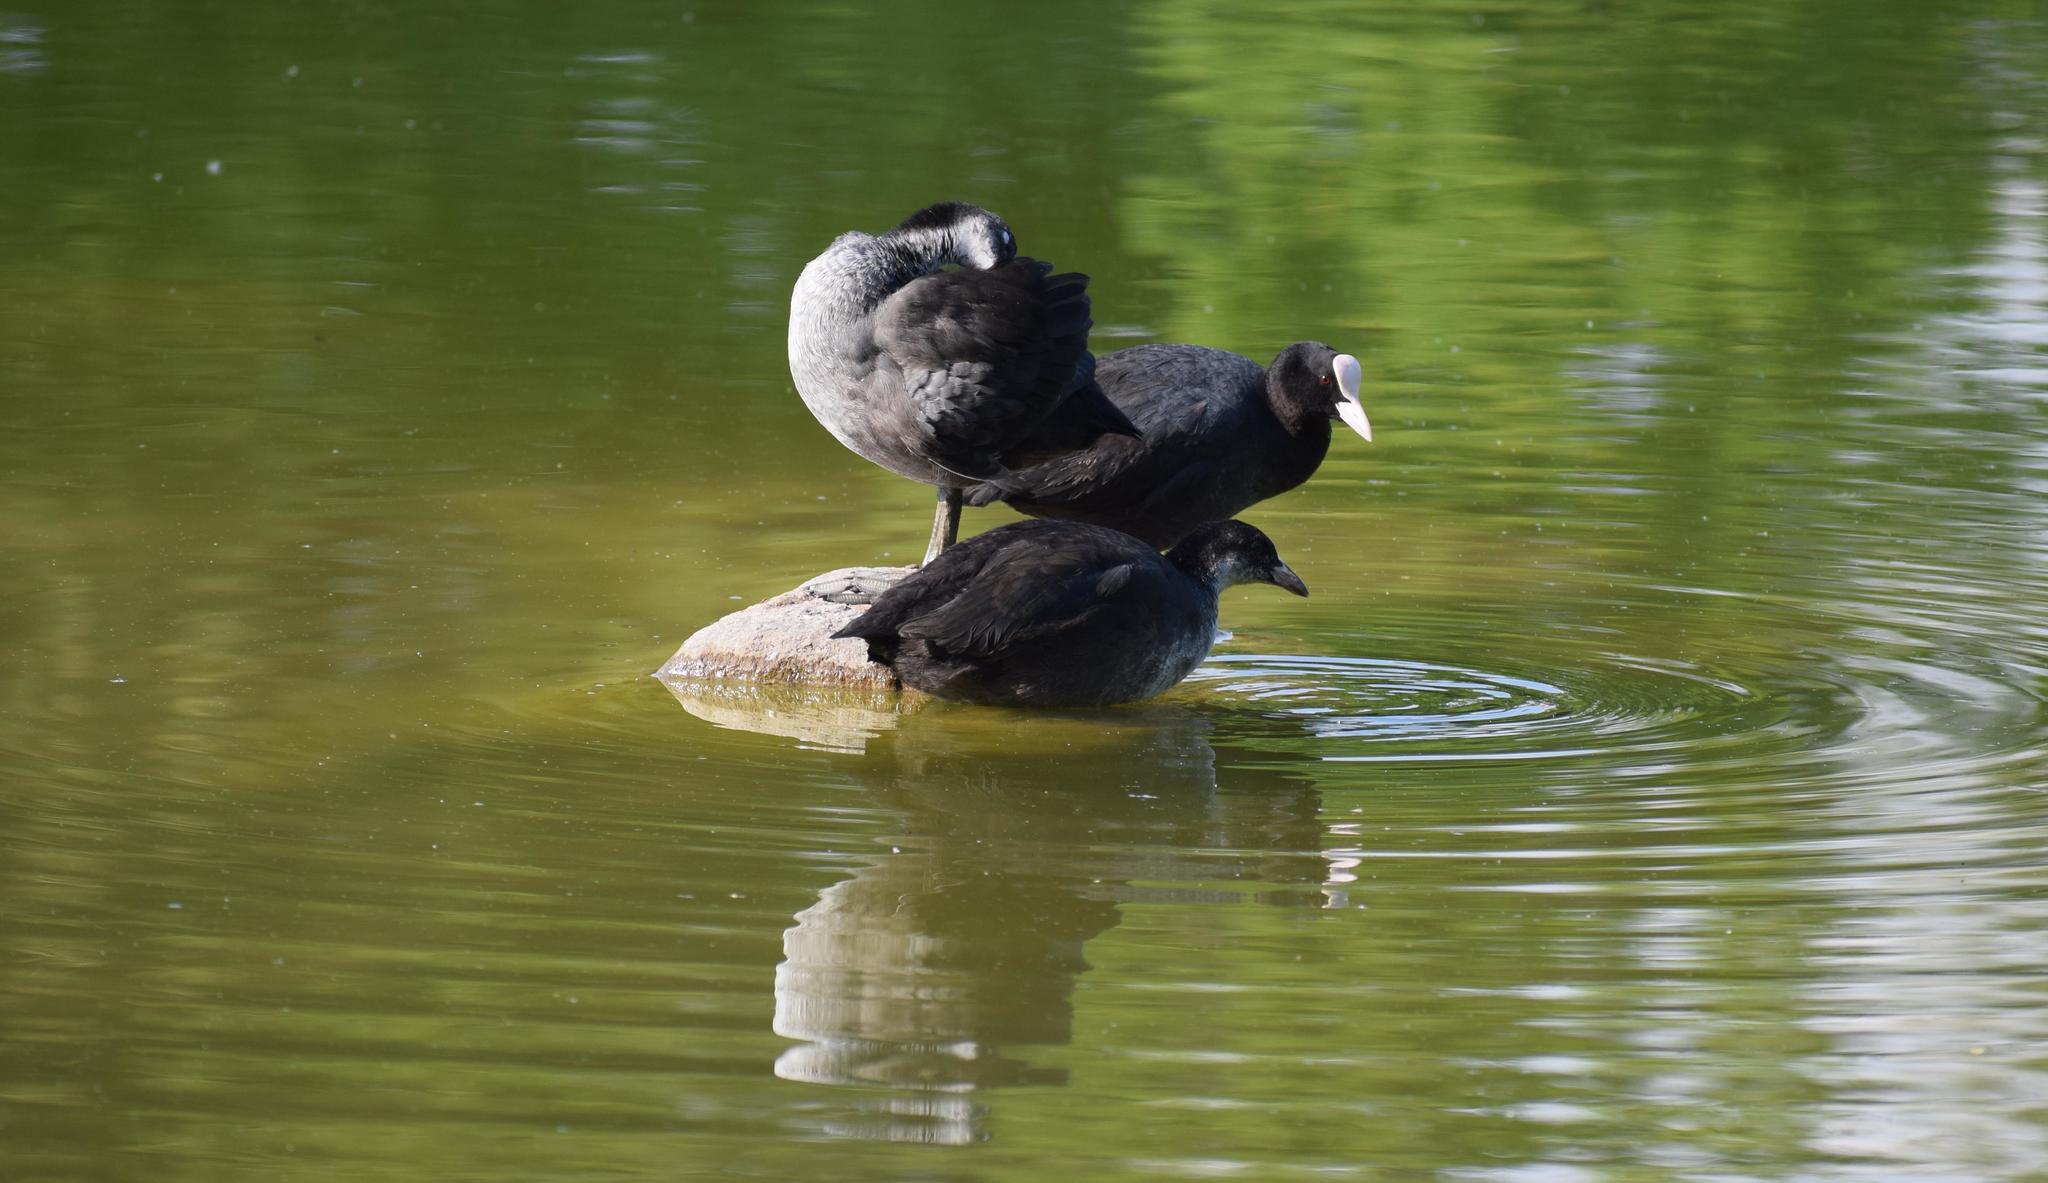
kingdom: Animalia
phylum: Chordata
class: Aves
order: Gruiformes
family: Rallidae
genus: Fulica
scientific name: Fulica atra
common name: Eurasian coot
